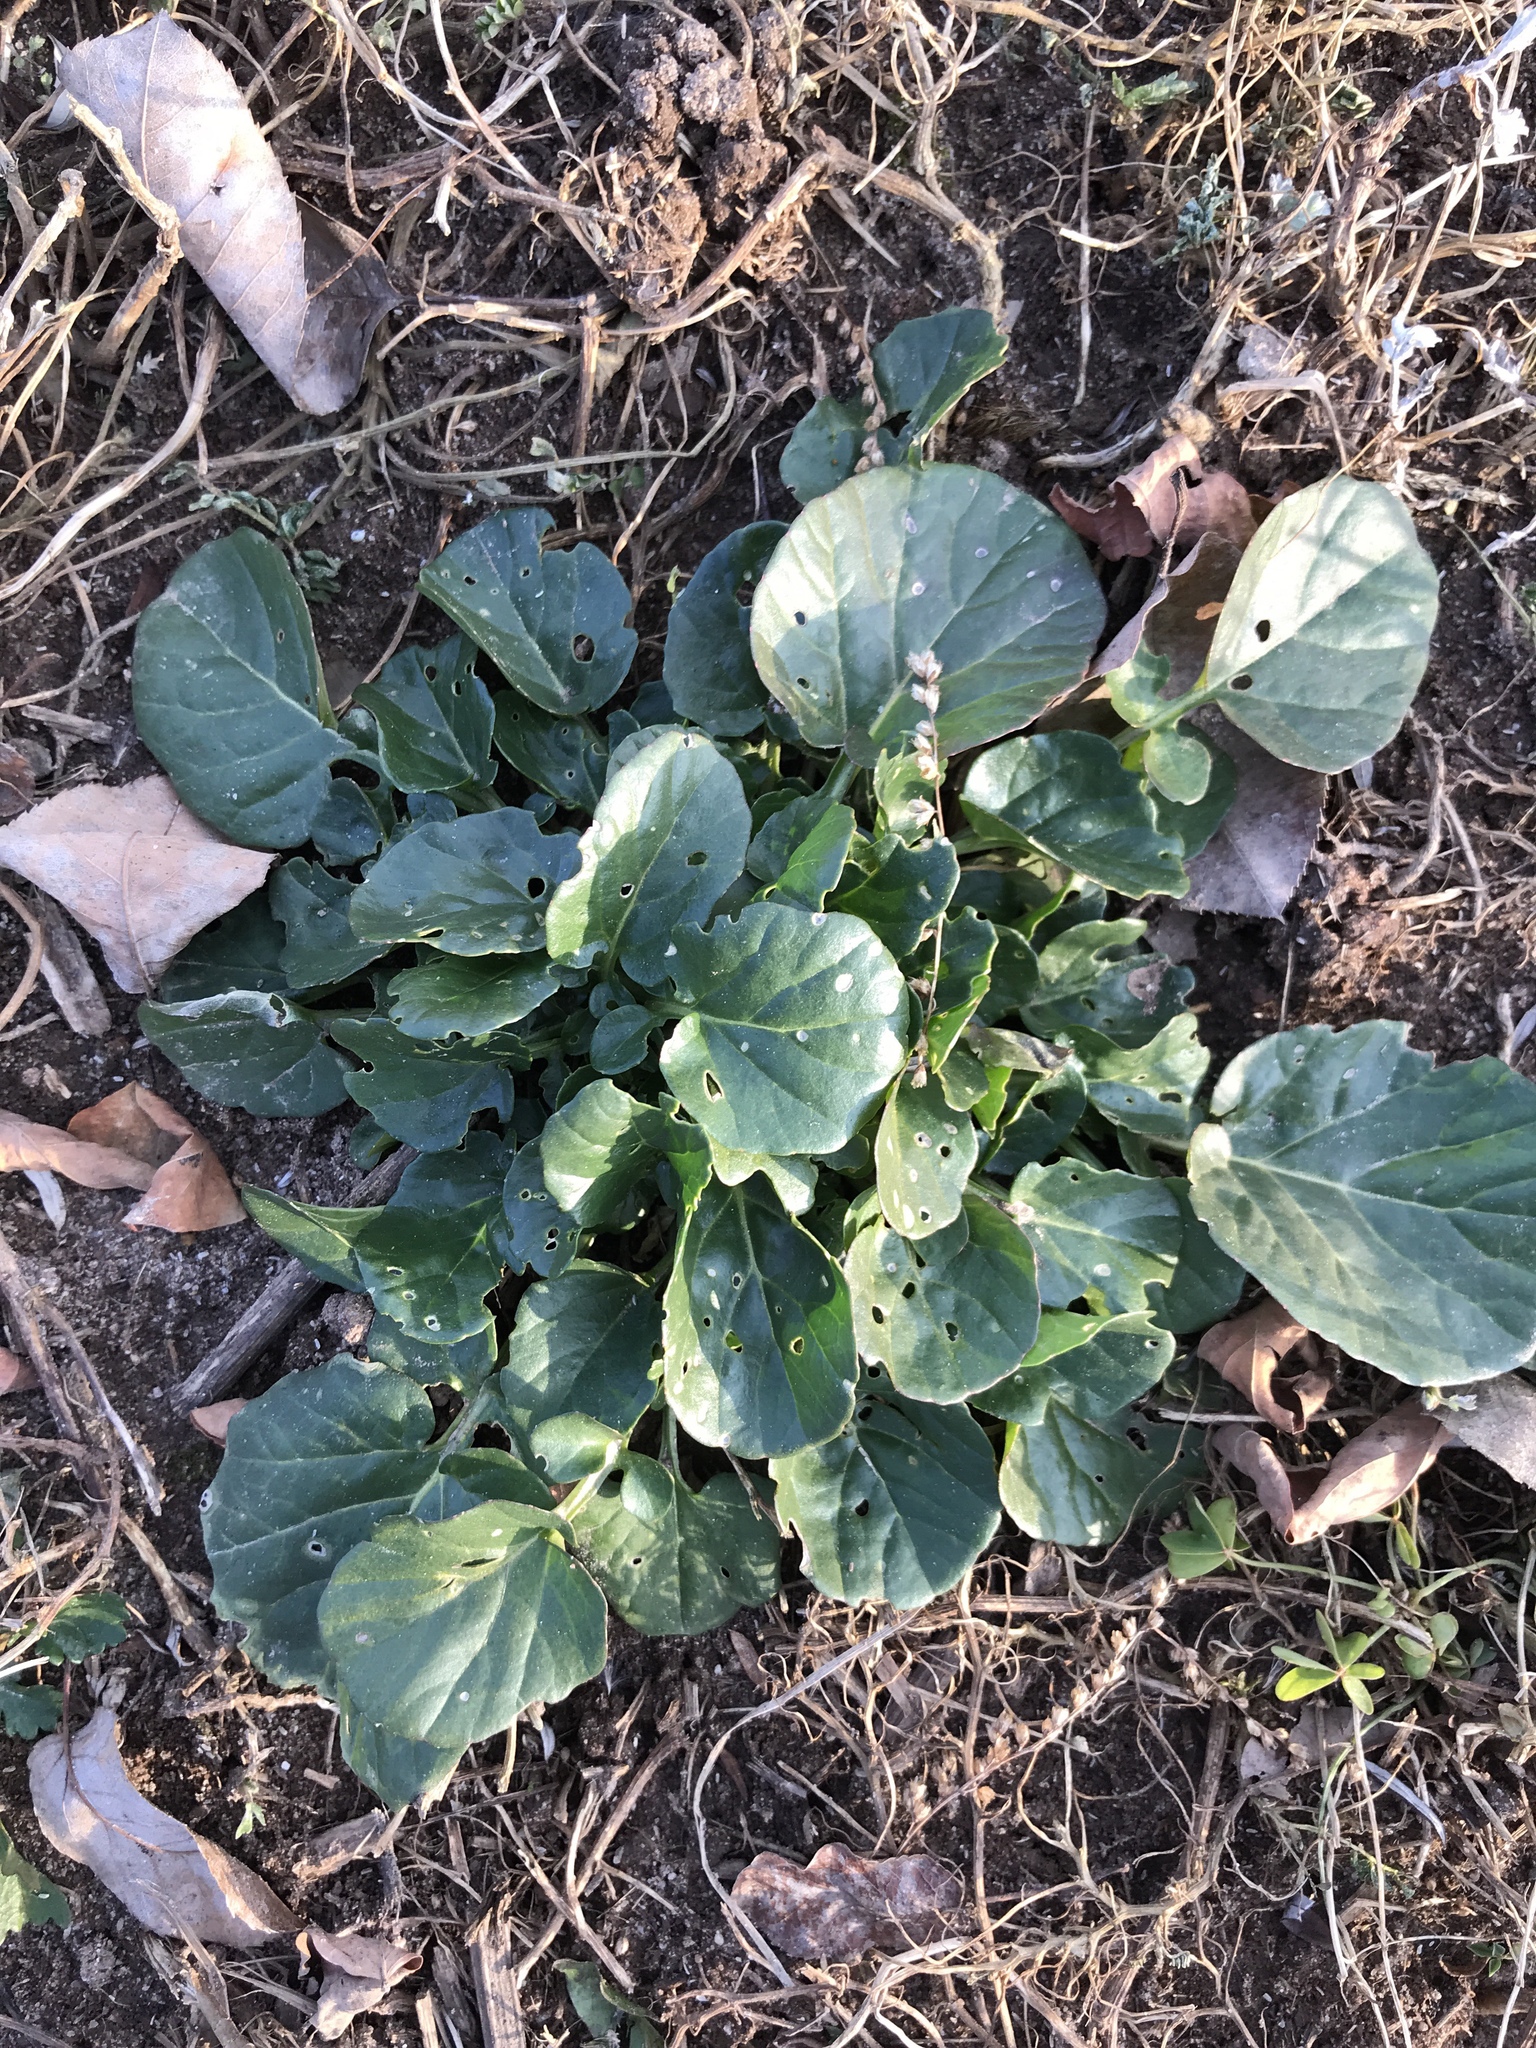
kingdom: Plantae
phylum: Tracheophyta
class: Magnoliopsida
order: Brassicales
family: Brassicaceae
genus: Barbarea
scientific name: Barbarea vulgaris
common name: Cressy-greens
